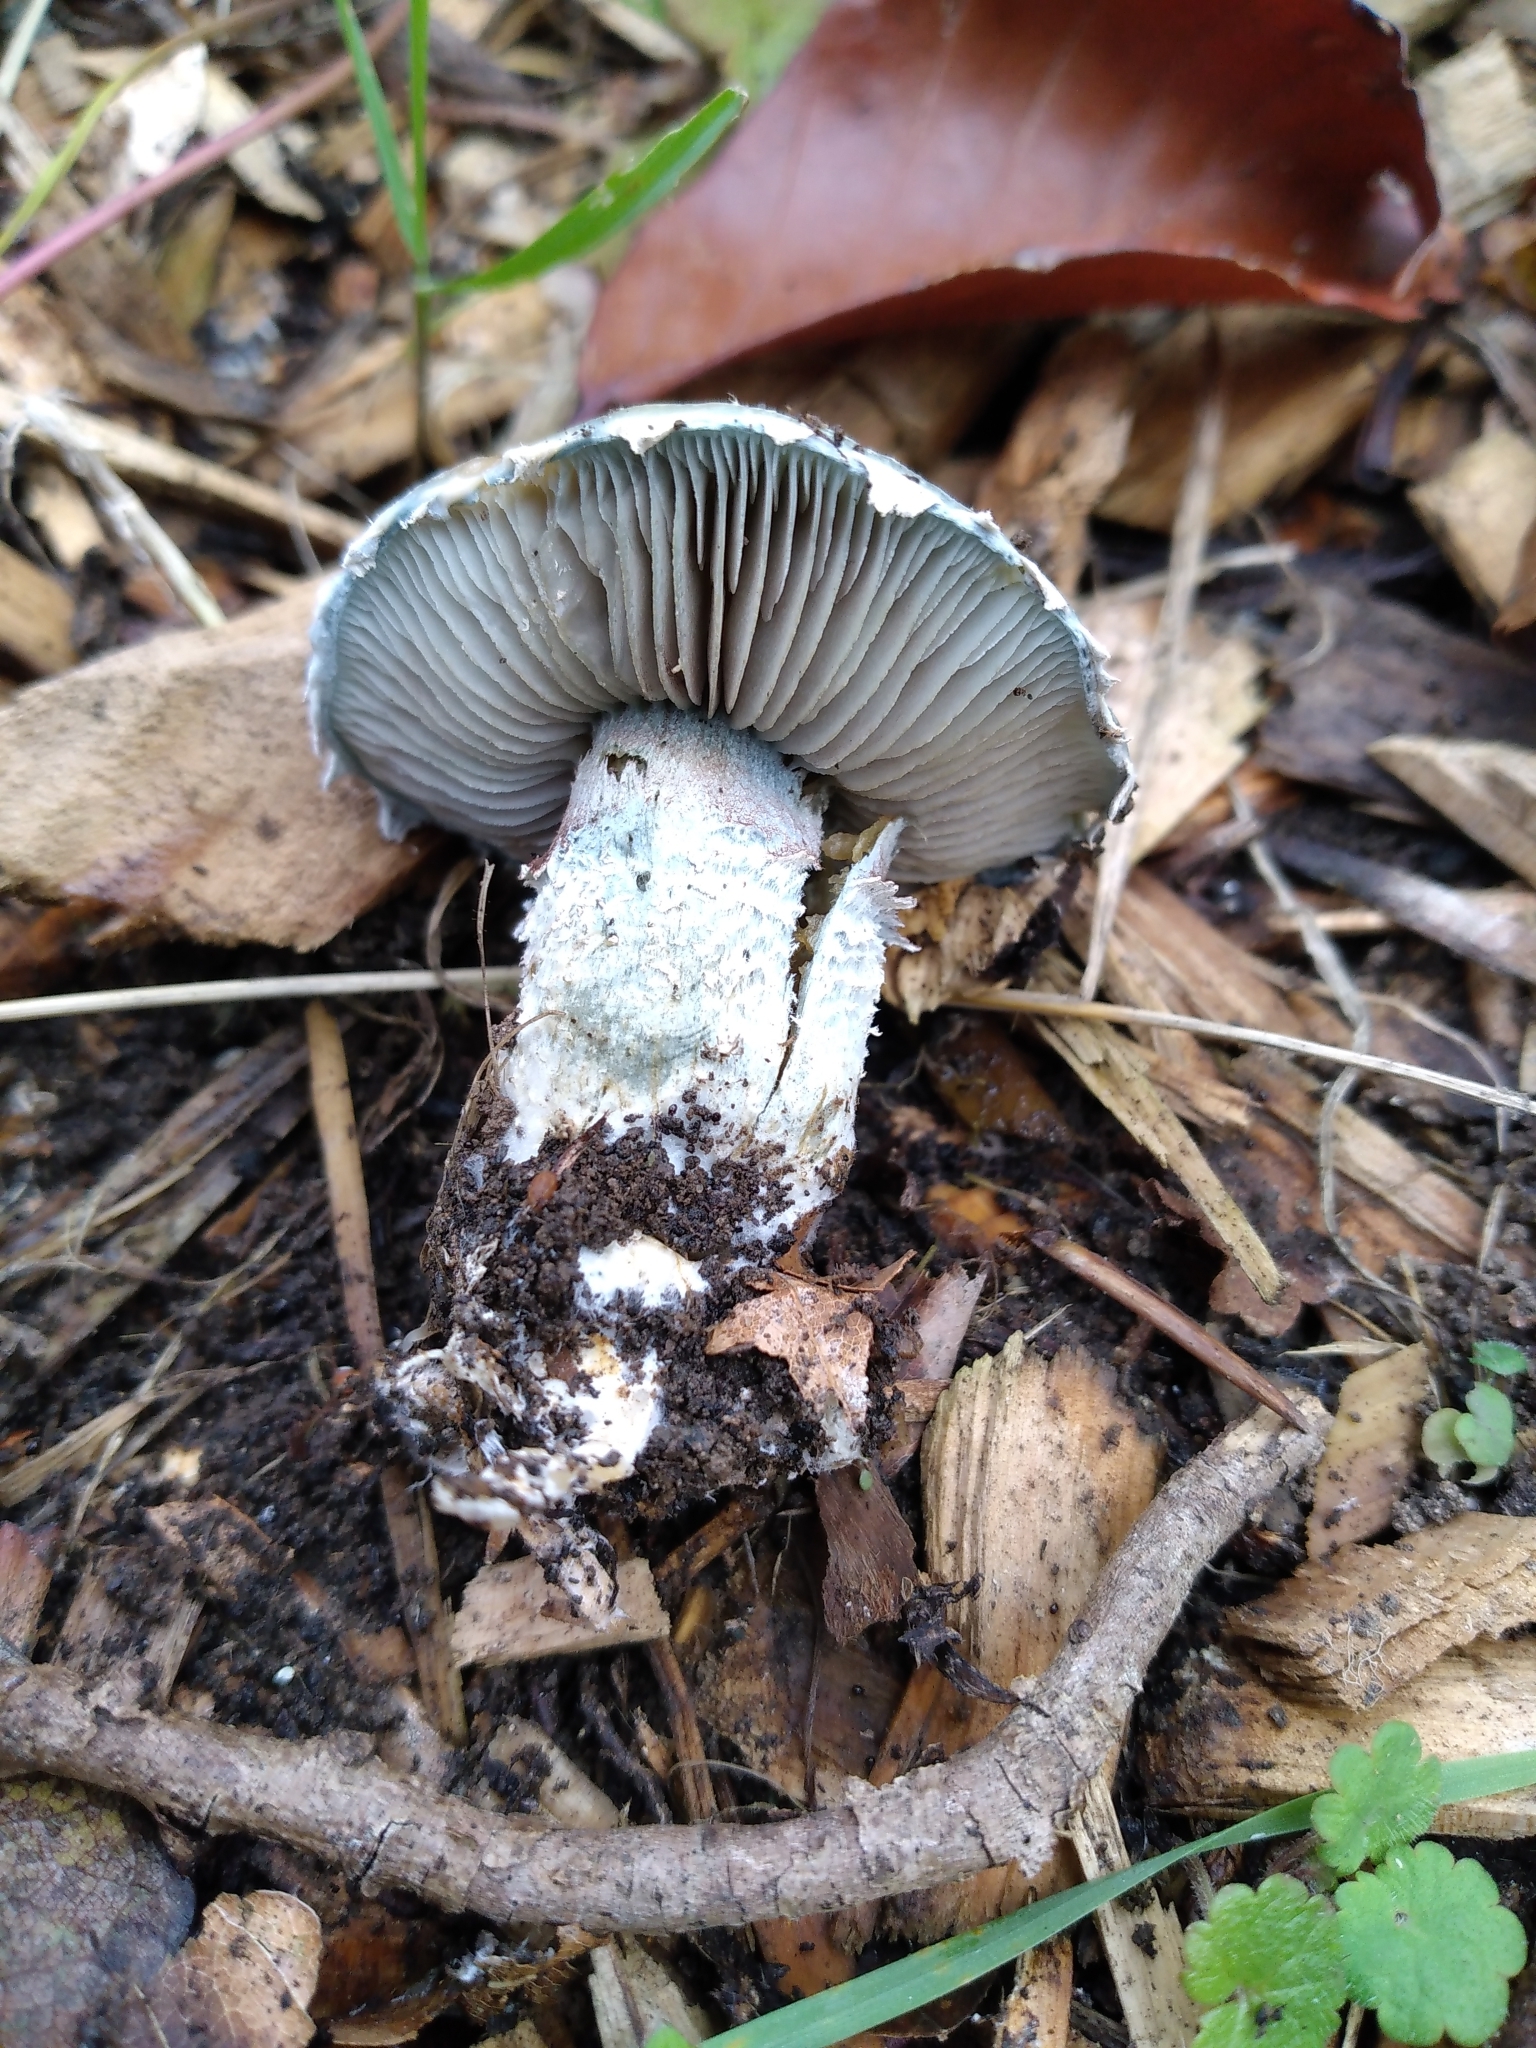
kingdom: Fungi
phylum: Basidiomycota
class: Agaricomycetes
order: Agaricales
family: Strophariaceae
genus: Stropharia
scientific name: Stropharia caerulea
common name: Blue roundhead
